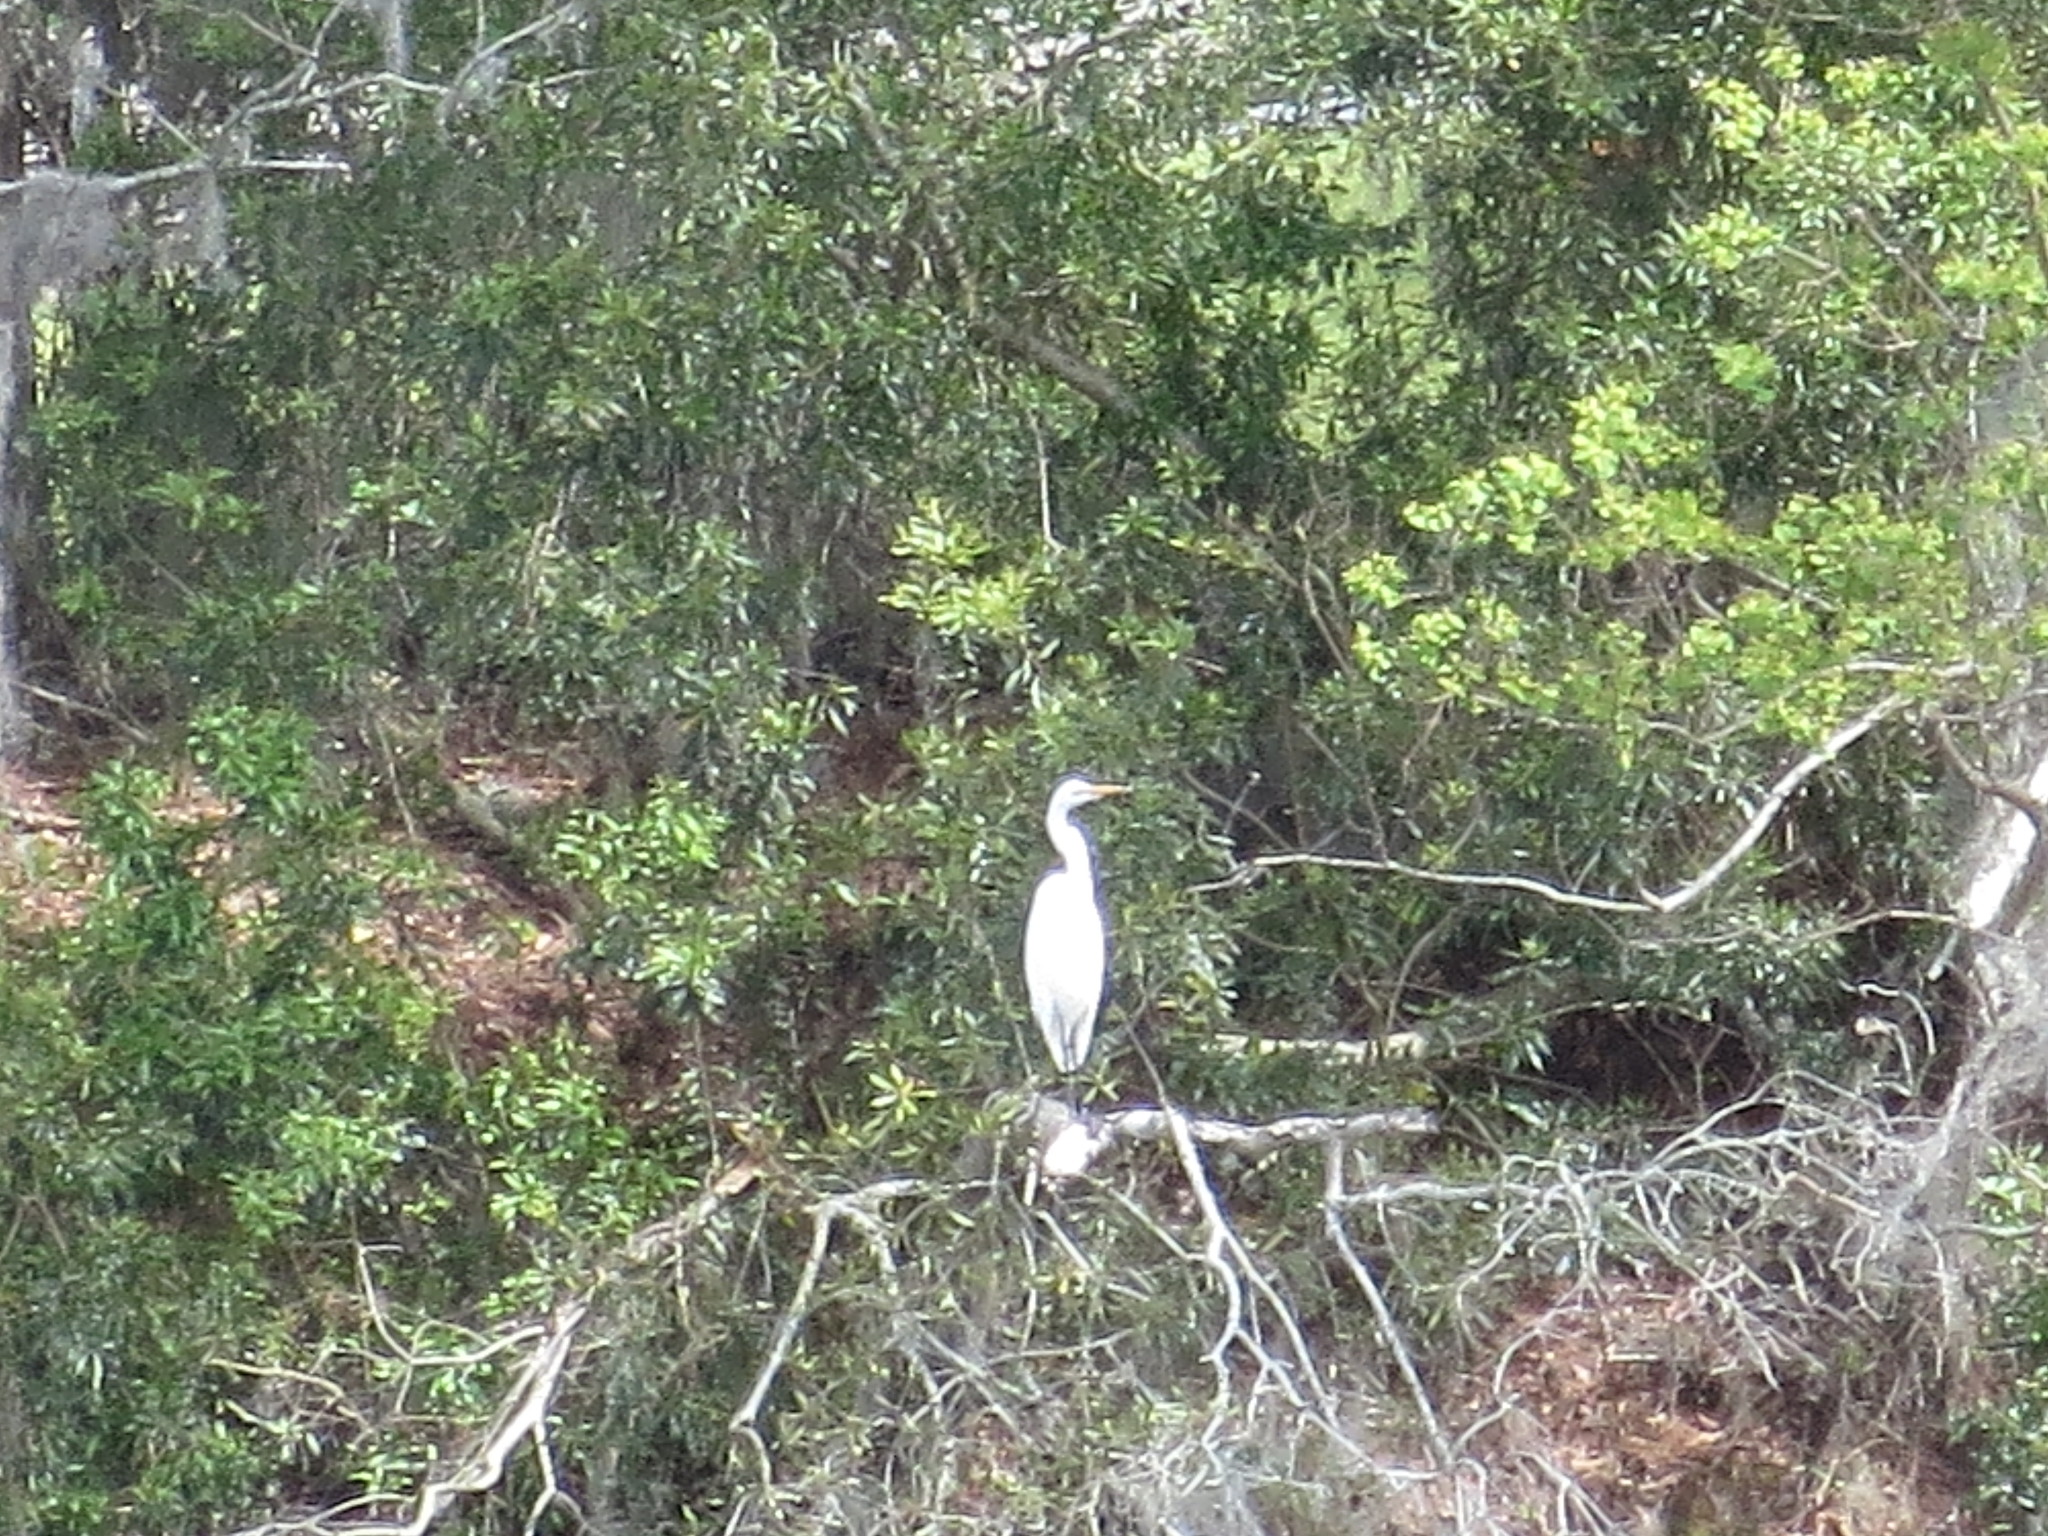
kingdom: Animalia
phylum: Chordata
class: Aves
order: Pelecaniformes
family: Ardeidae
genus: Ardea
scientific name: Ardea alba
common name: Great egret
